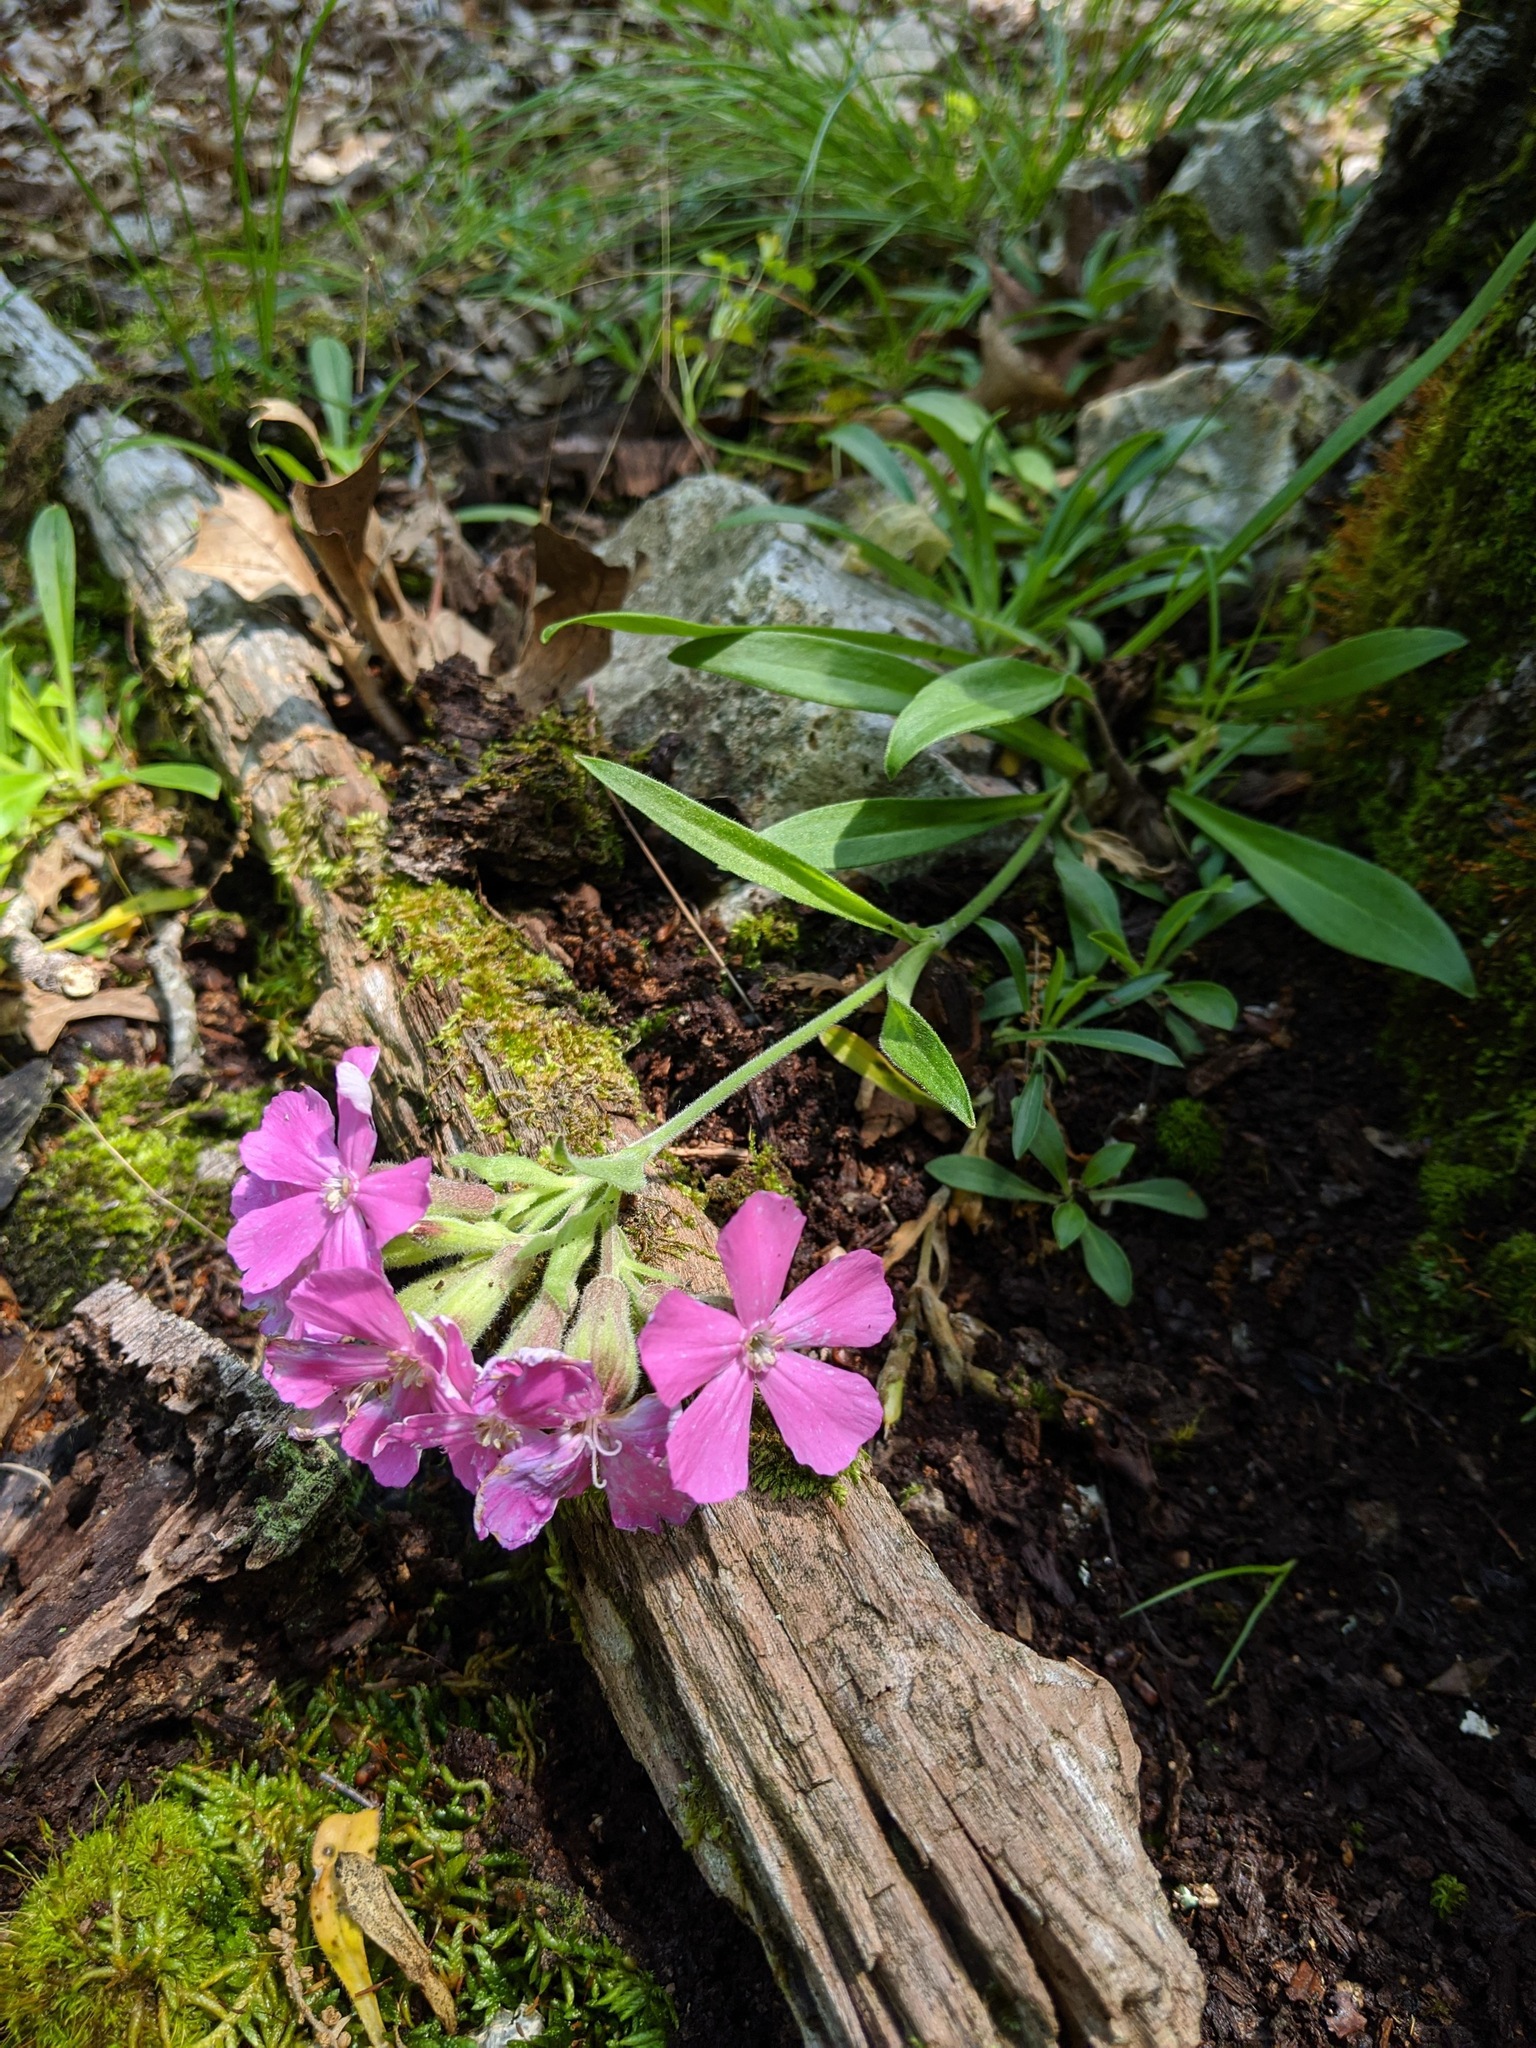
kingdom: Plantae
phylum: Tracheophyta
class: Magnoliopsida
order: Caryophyllales
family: Caryophyllaceae
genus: Silene
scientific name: Silene caroliniana
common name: Sticky catchfly
